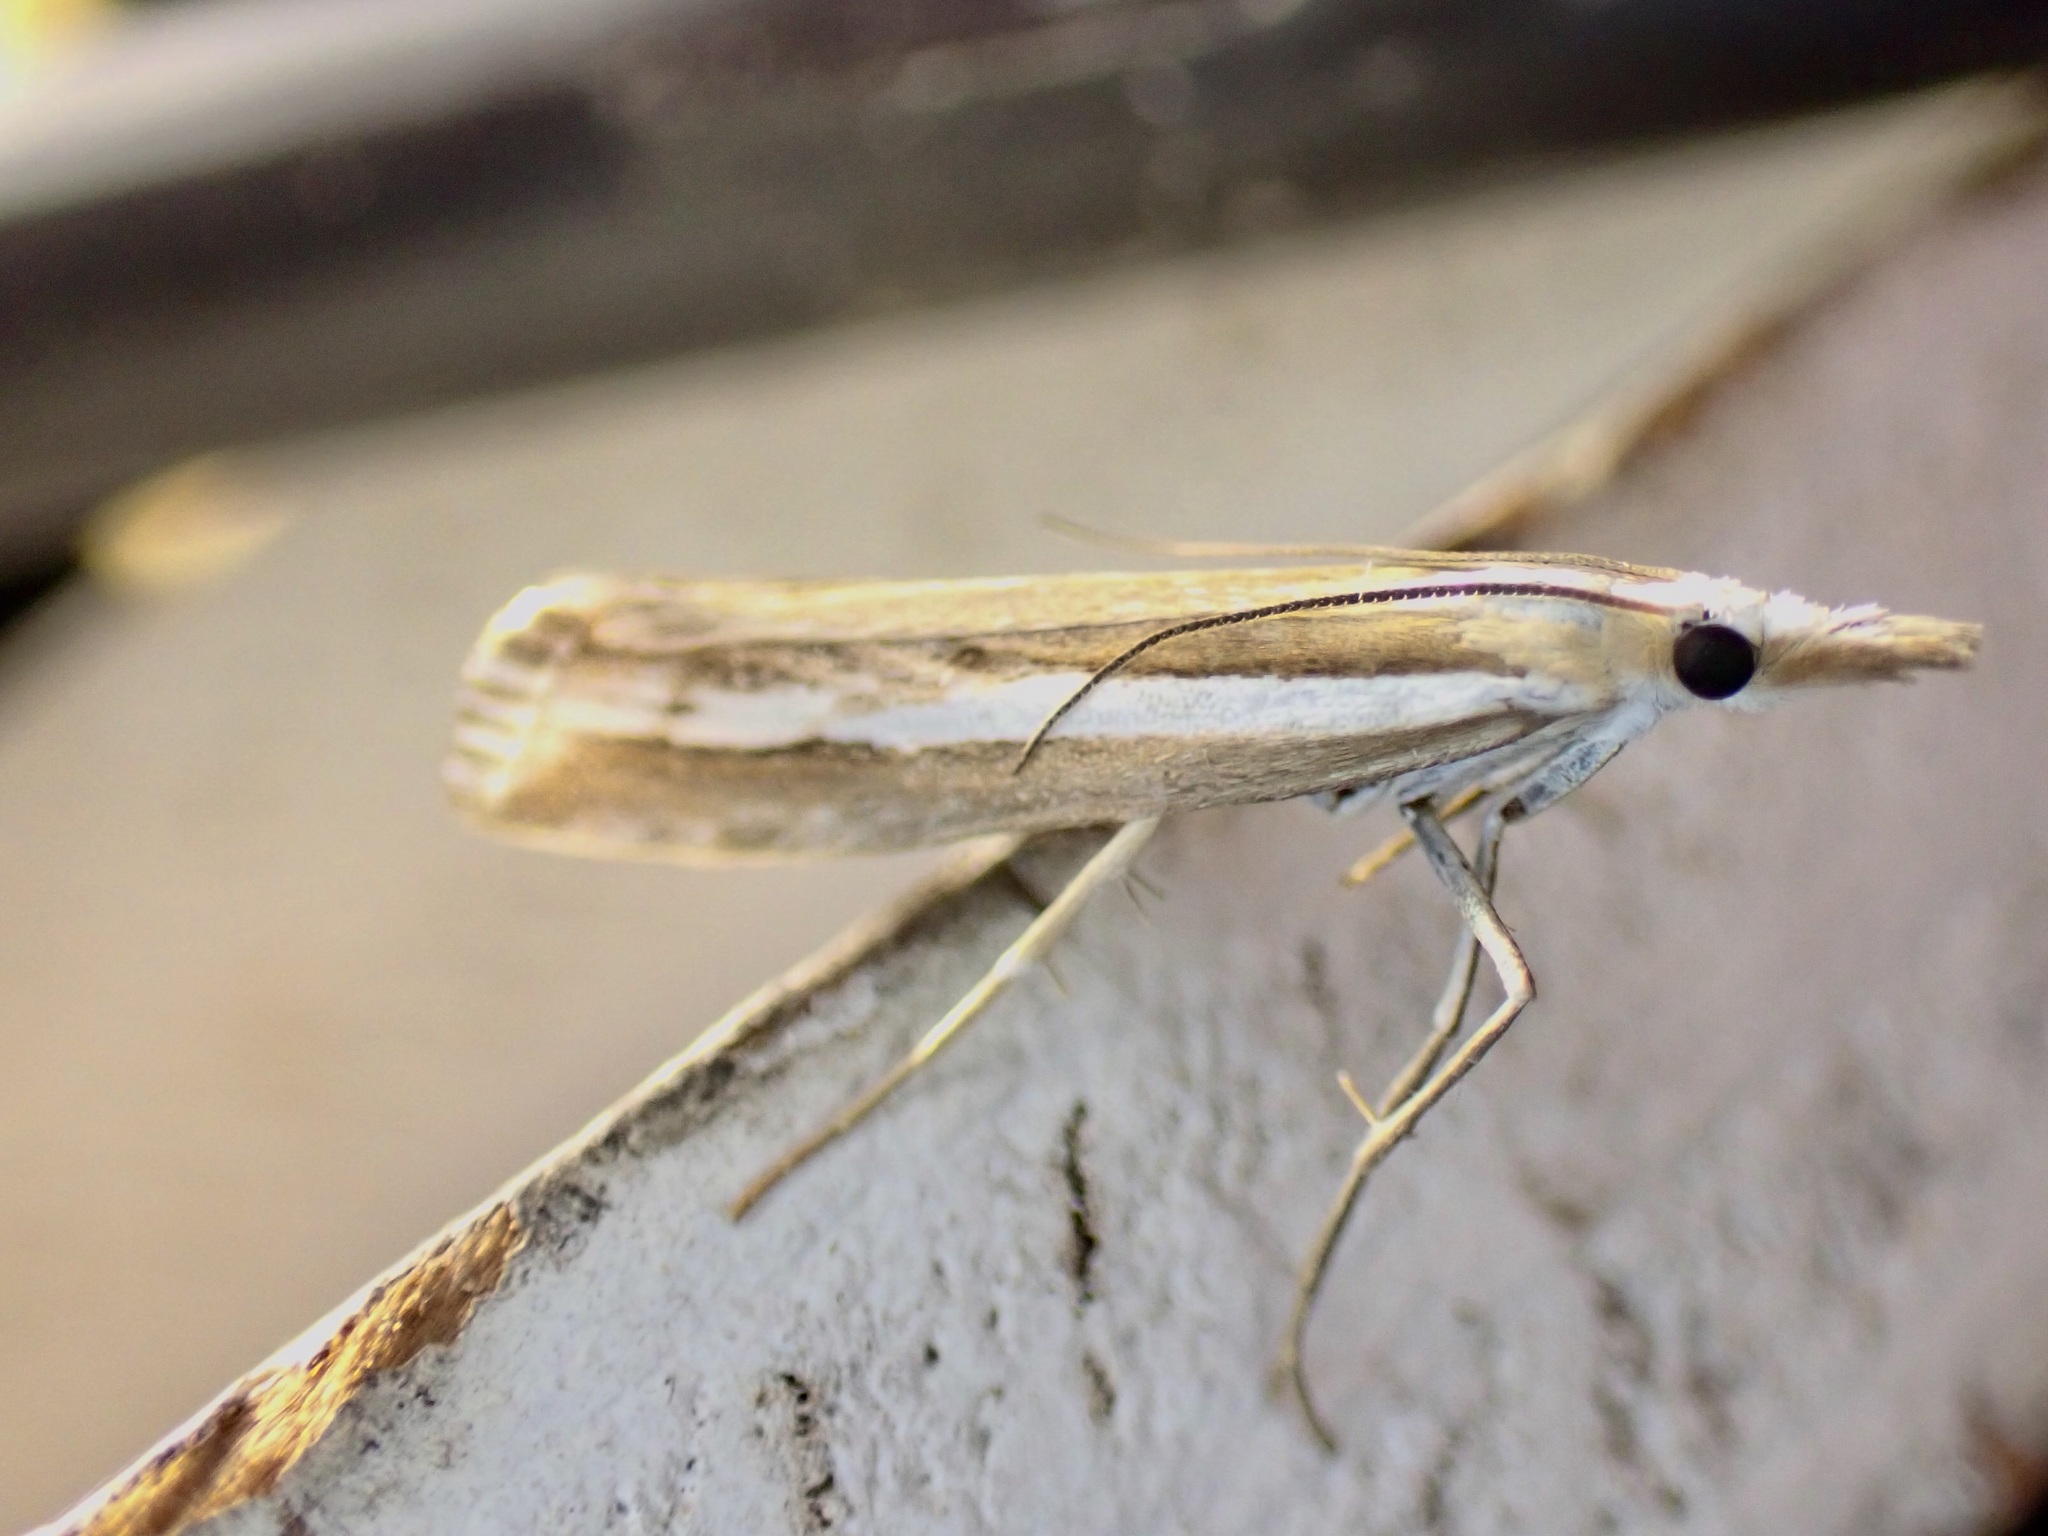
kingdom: Animalia
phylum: Arthropoda
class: Insecta
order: Lepidoptera
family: Crambidae
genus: Orocrambus
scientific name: Orocrambus vittellus
